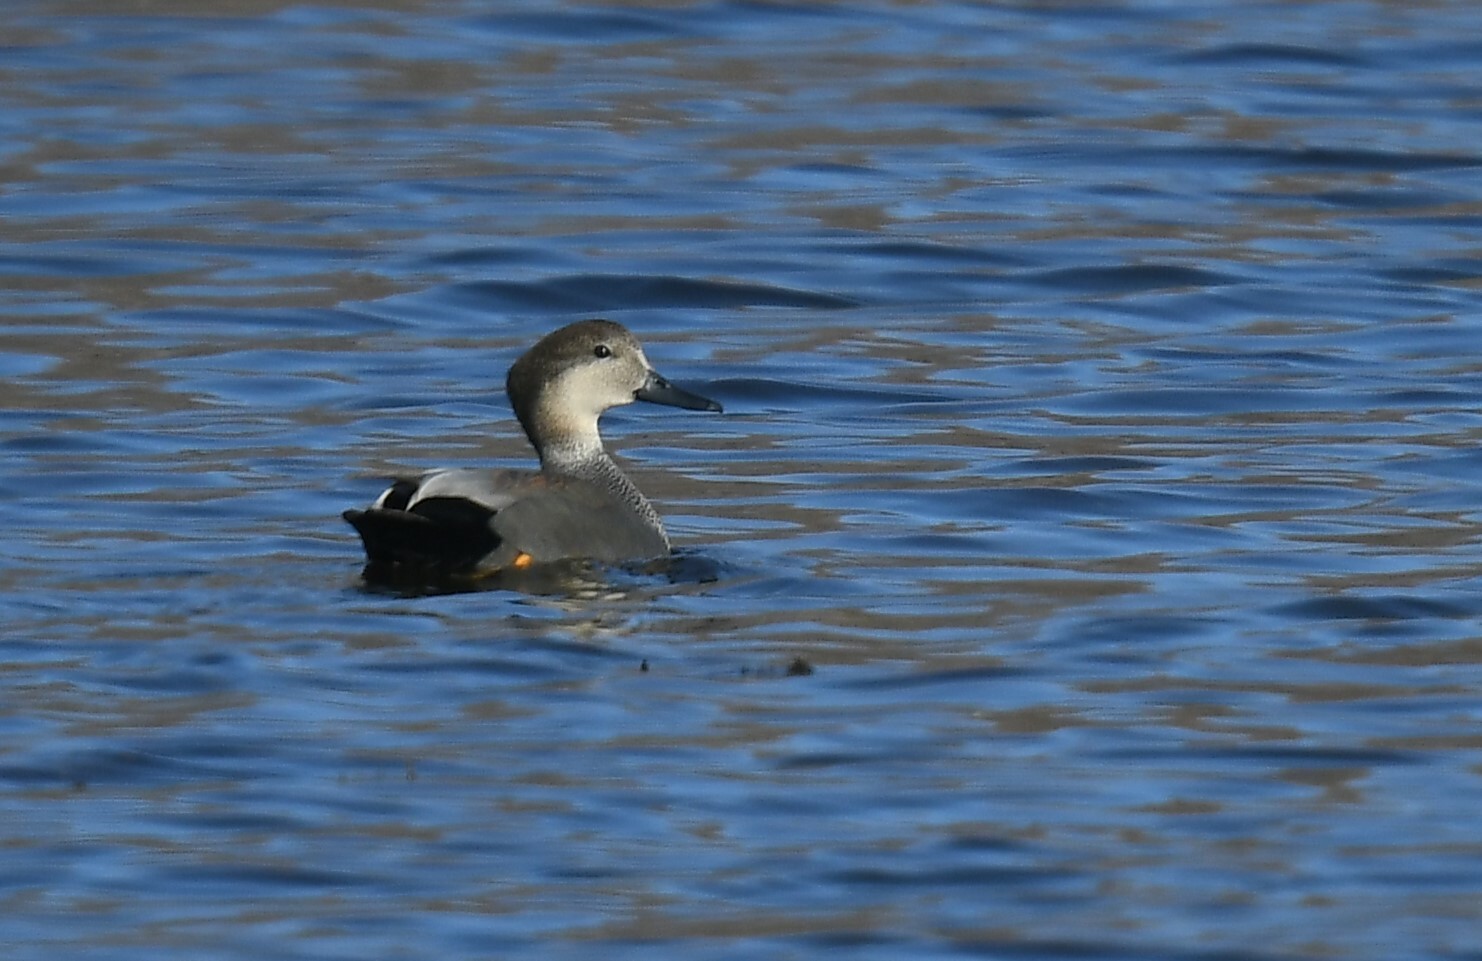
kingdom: Animalia
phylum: Chordata
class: Aves
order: Anseriformes
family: Anatidae
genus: Mareca
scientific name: Mareca strepera
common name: Gadwall
